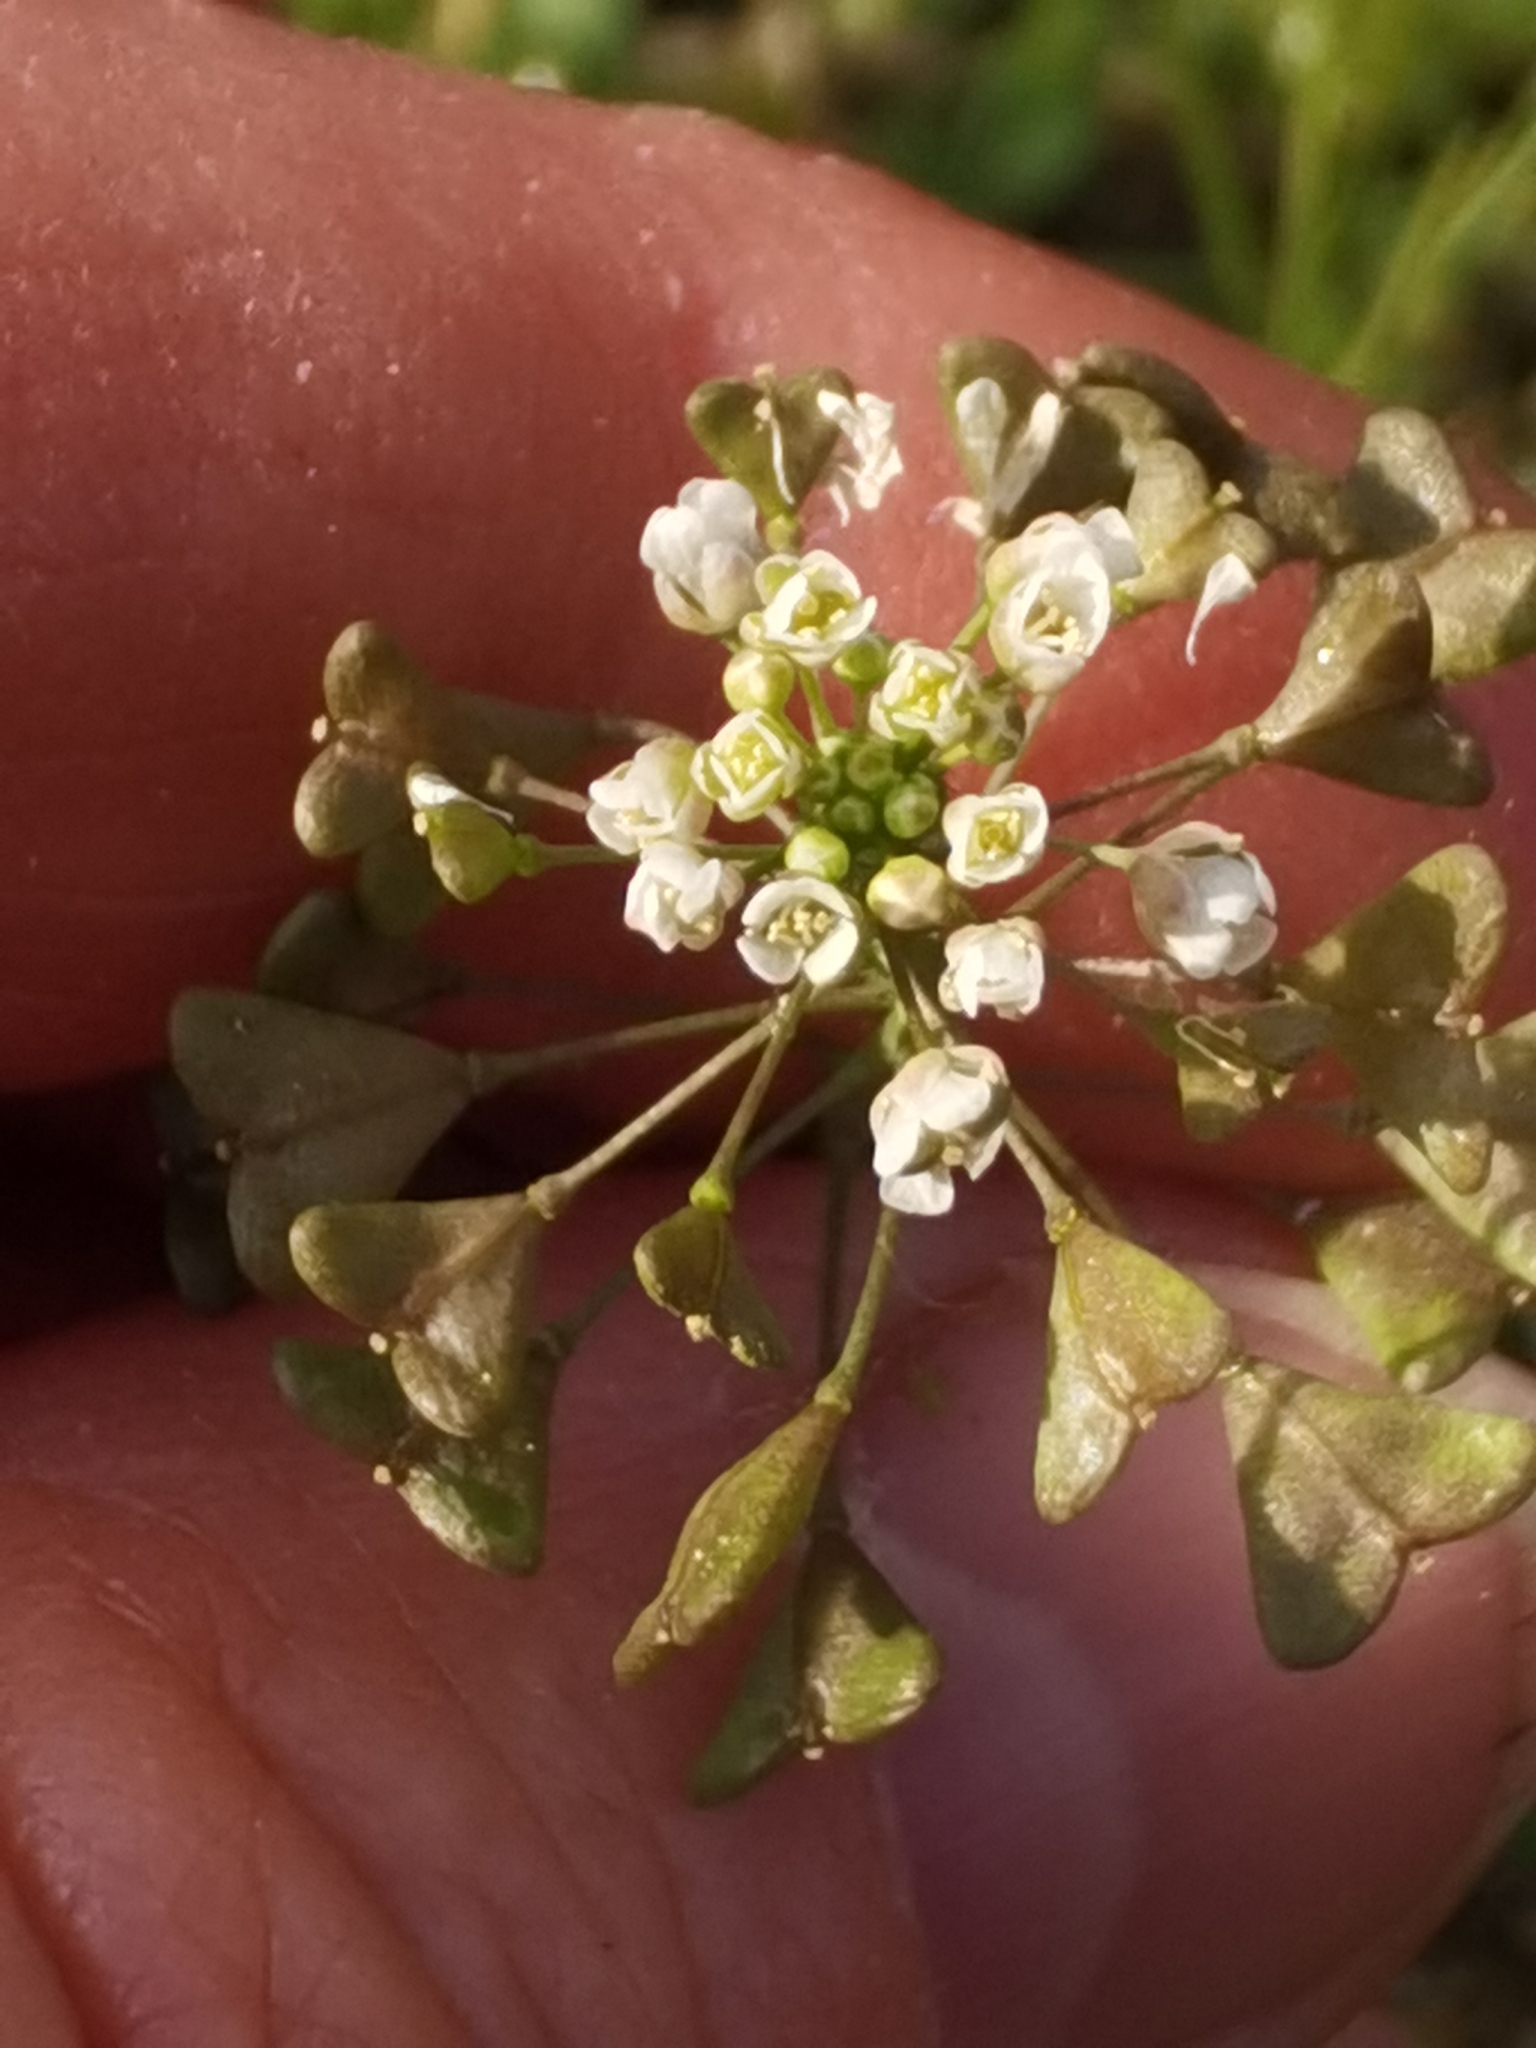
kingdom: Plantae
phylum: Tracheophyta
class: Magnoliopsida
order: Brassicales
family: Brassicaceae
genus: Capsella
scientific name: Capsella bursa-pastoris
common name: Shepherd's purse
